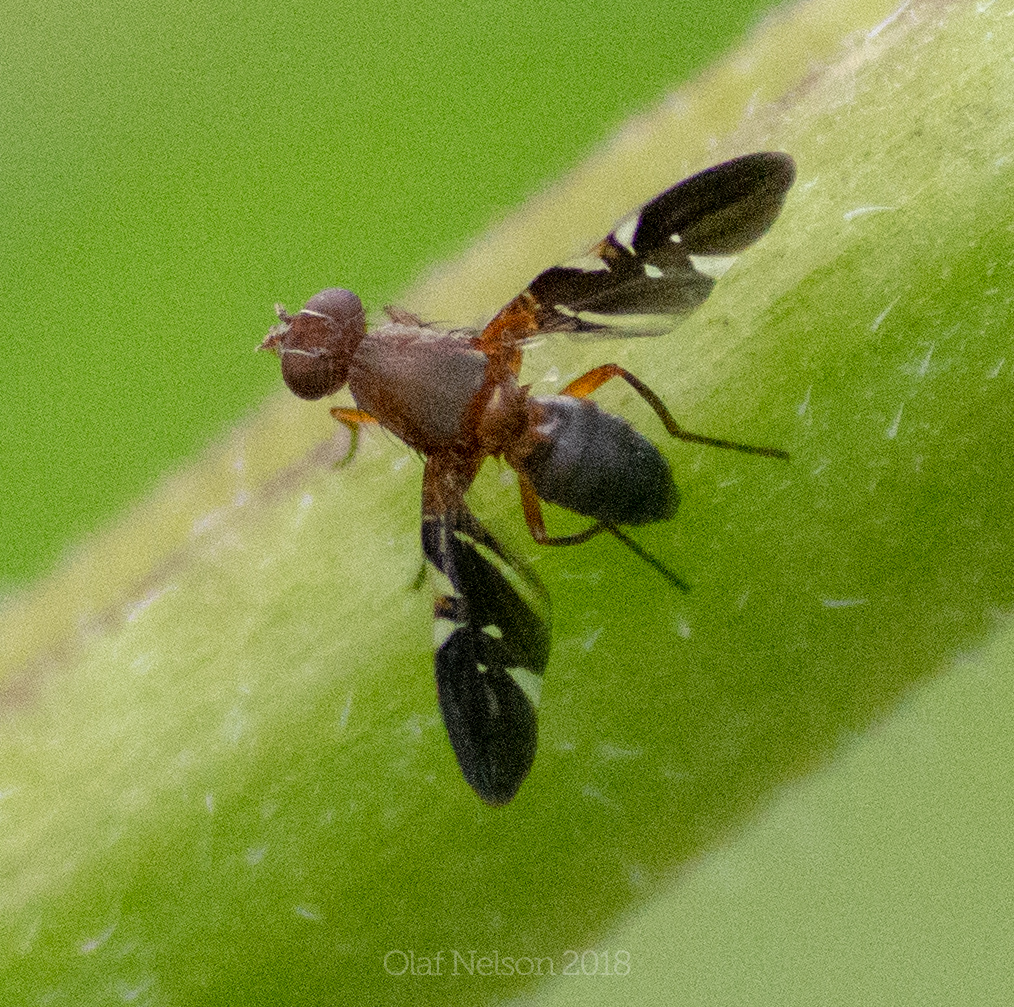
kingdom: Animalia
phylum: Arthropoda
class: Insecta
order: Diptera
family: Ulidiidae
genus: Delphinia
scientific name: Delphinia picta
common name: Common picture-winged fly
